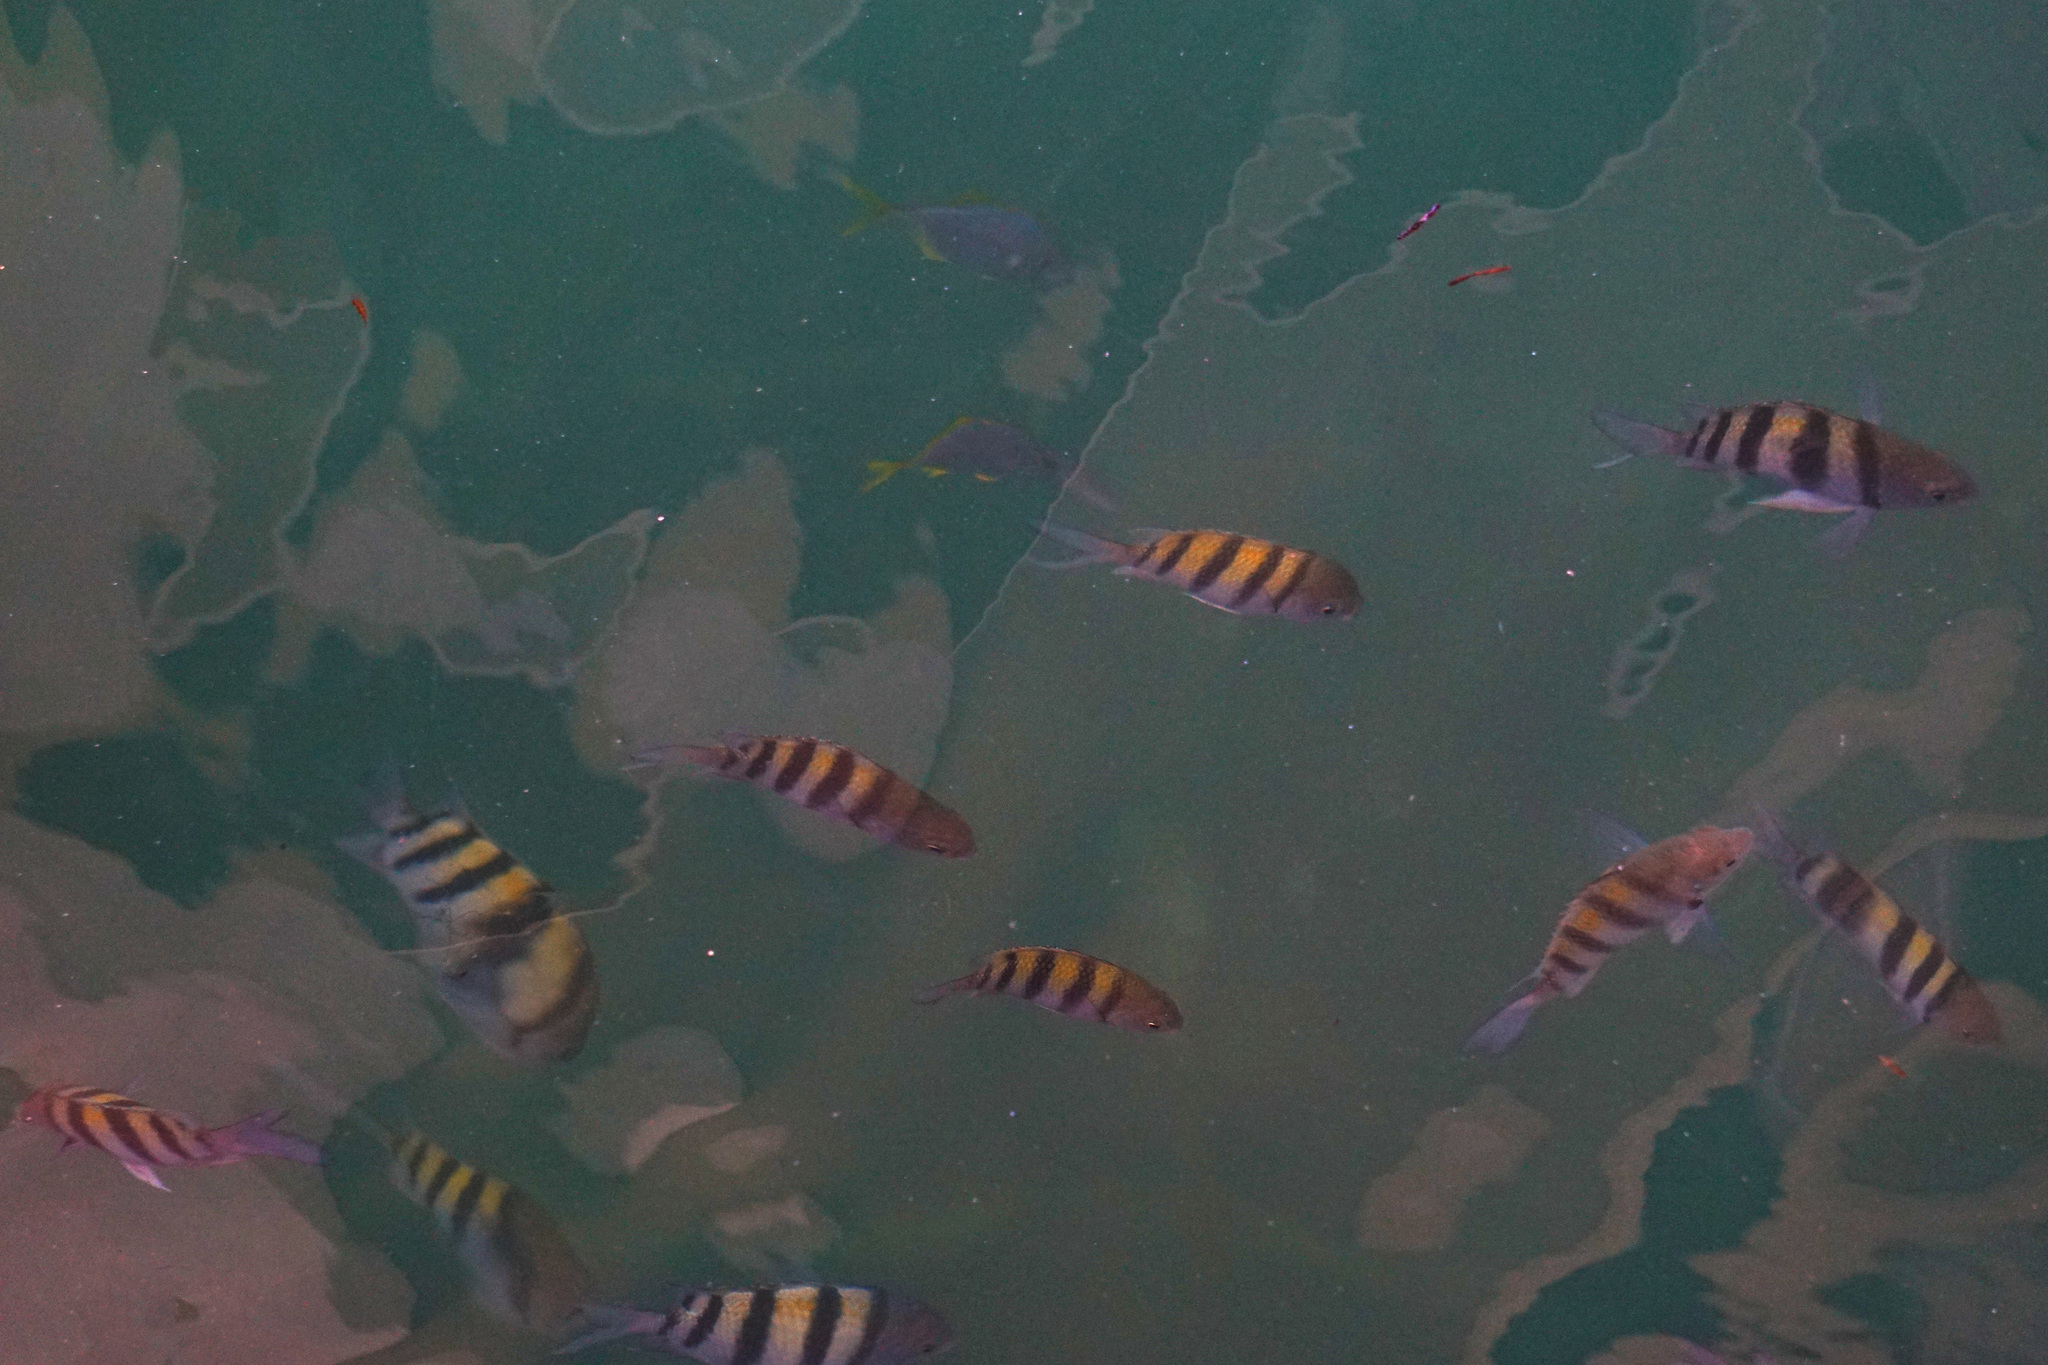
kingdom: Animalia
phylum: Chordata
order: Perciformes
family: Pomacentridae
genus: Abudefduf
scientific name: Abudefduf saxatilis
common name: Sergeant major
